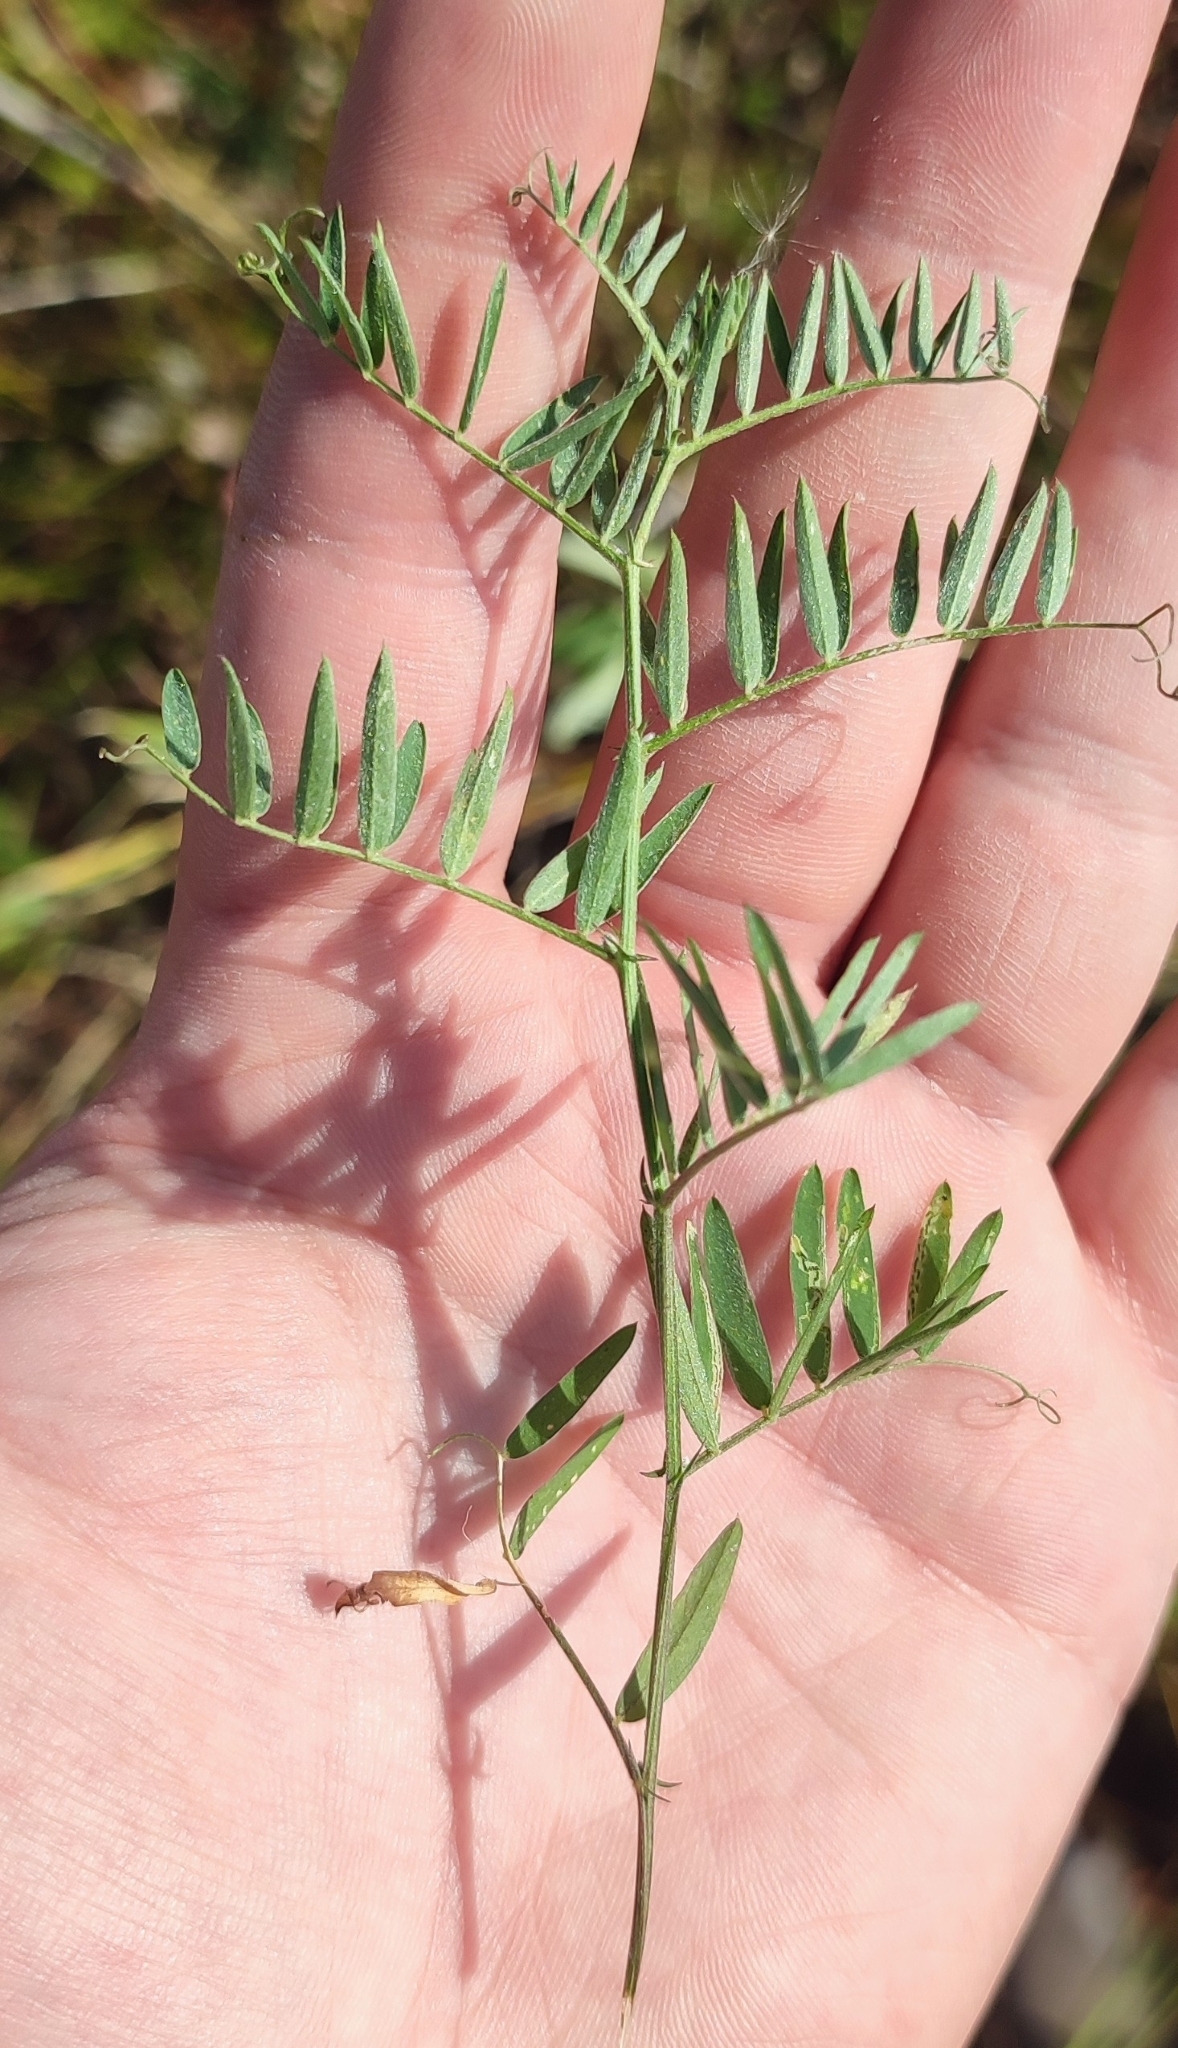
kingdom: Plantae
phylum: Tracheophyta
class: Magnoliopsida
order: Fabales
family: Fabaceae
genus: Vicia
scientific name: Vicia cracca
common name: Bird vetch
